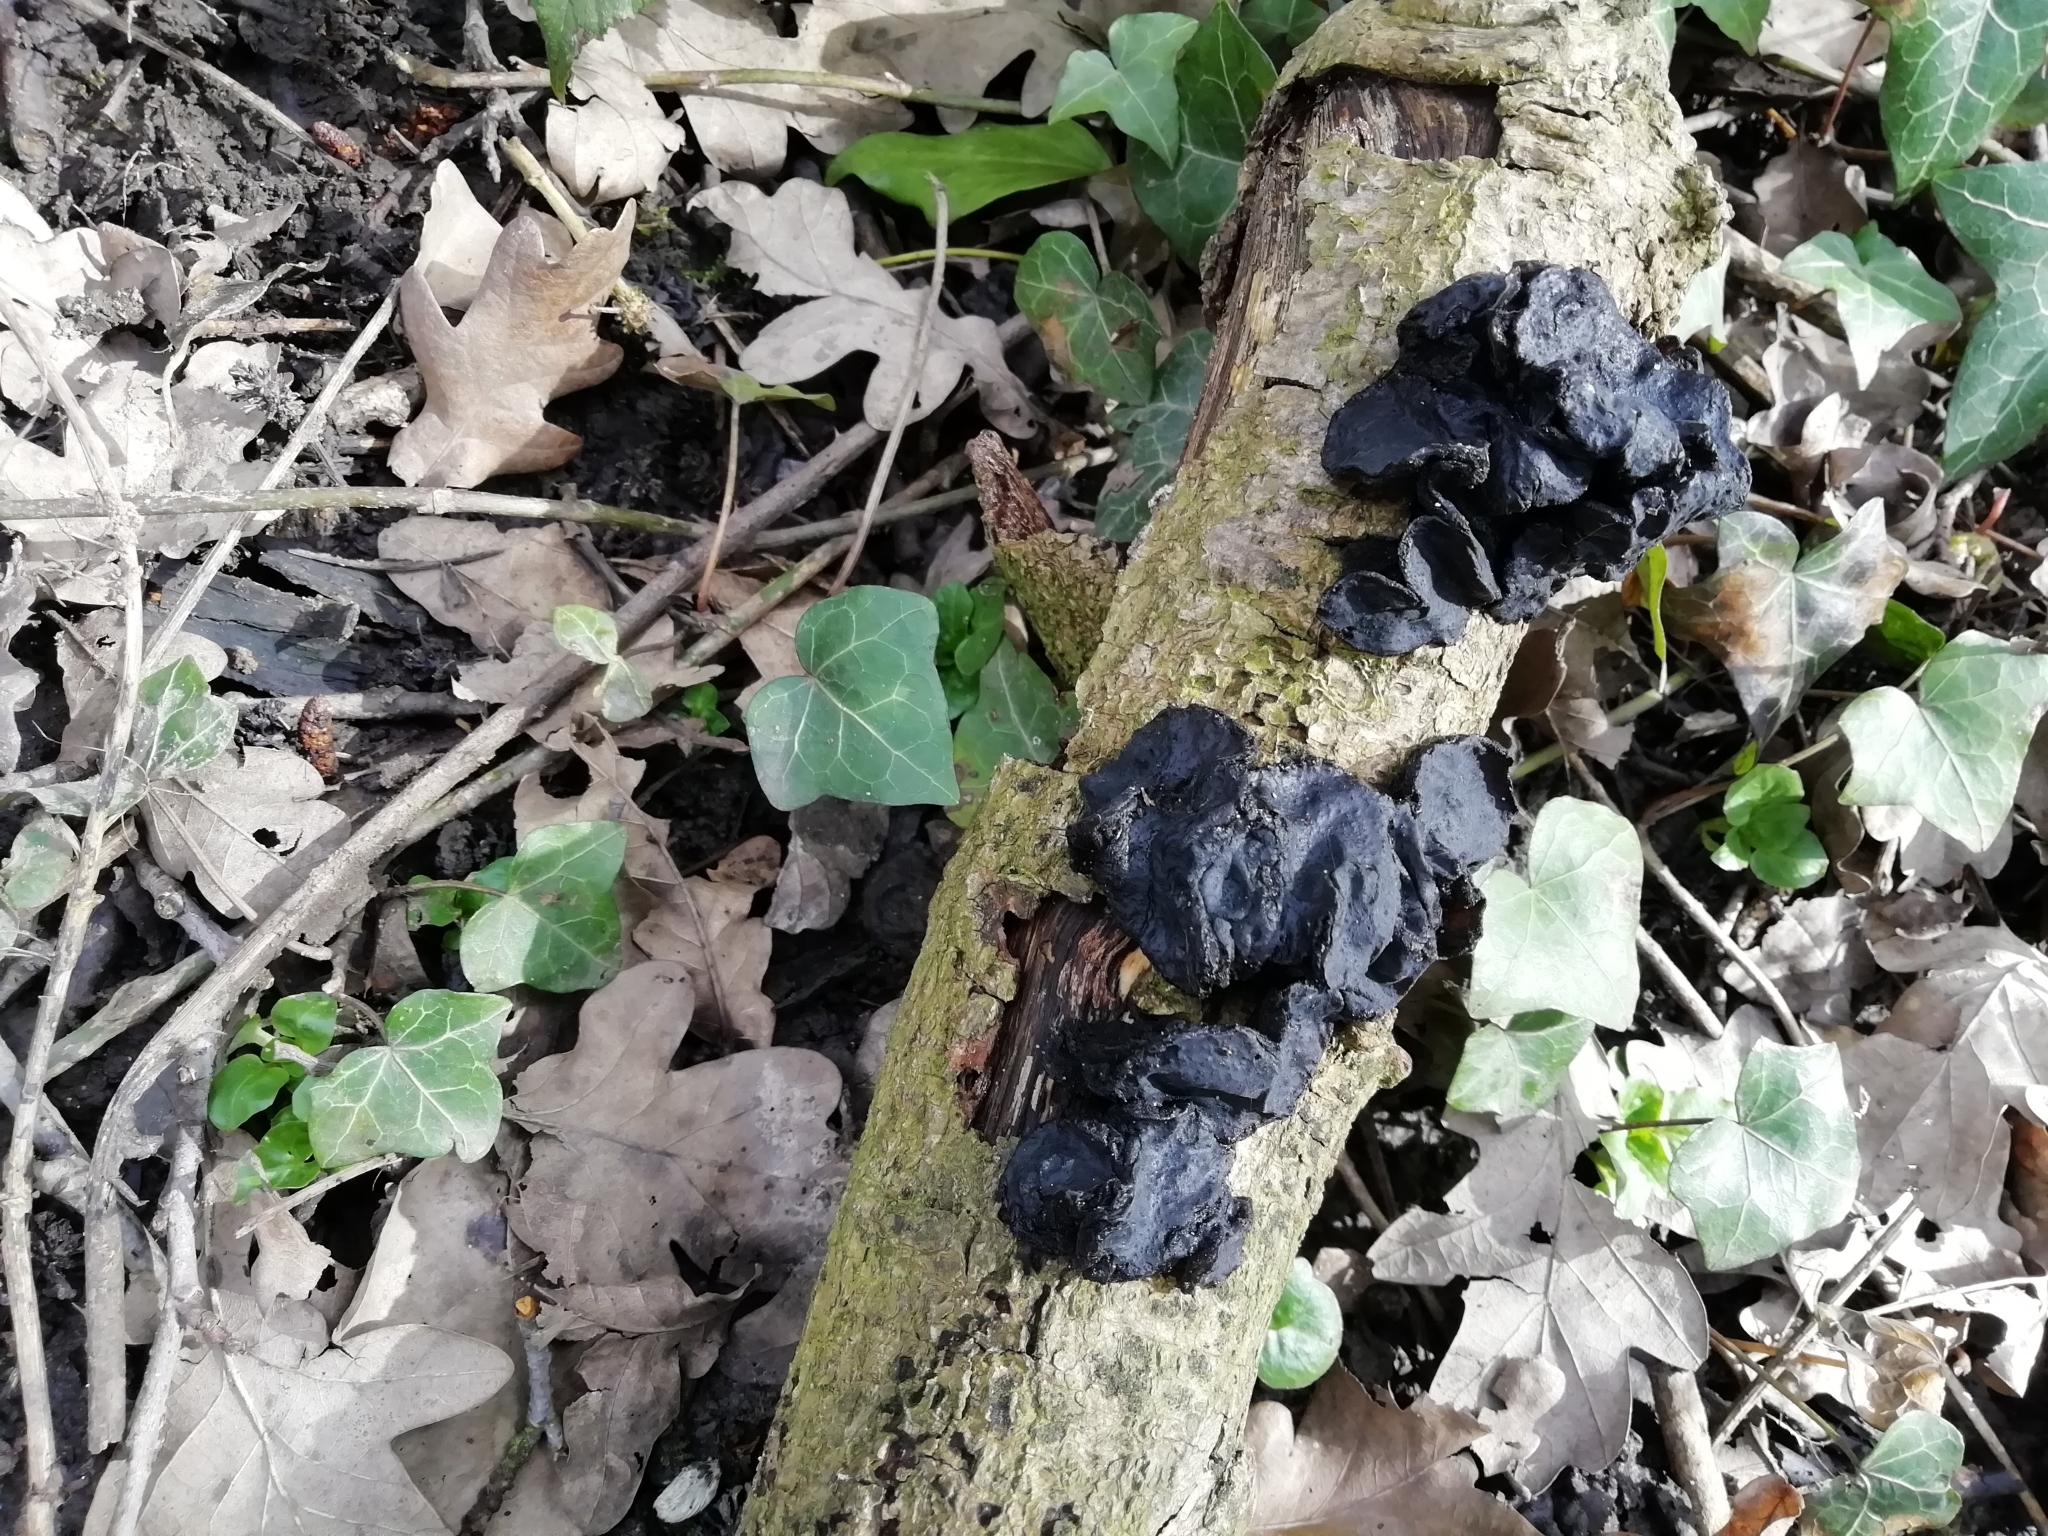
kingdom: Fungi
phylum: Basidiomycota
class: Agaricomycetes
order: Auriculariales
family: Auriculariaceae
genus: Exidia
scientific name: Exidia glandulosa
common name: Witches' butter
